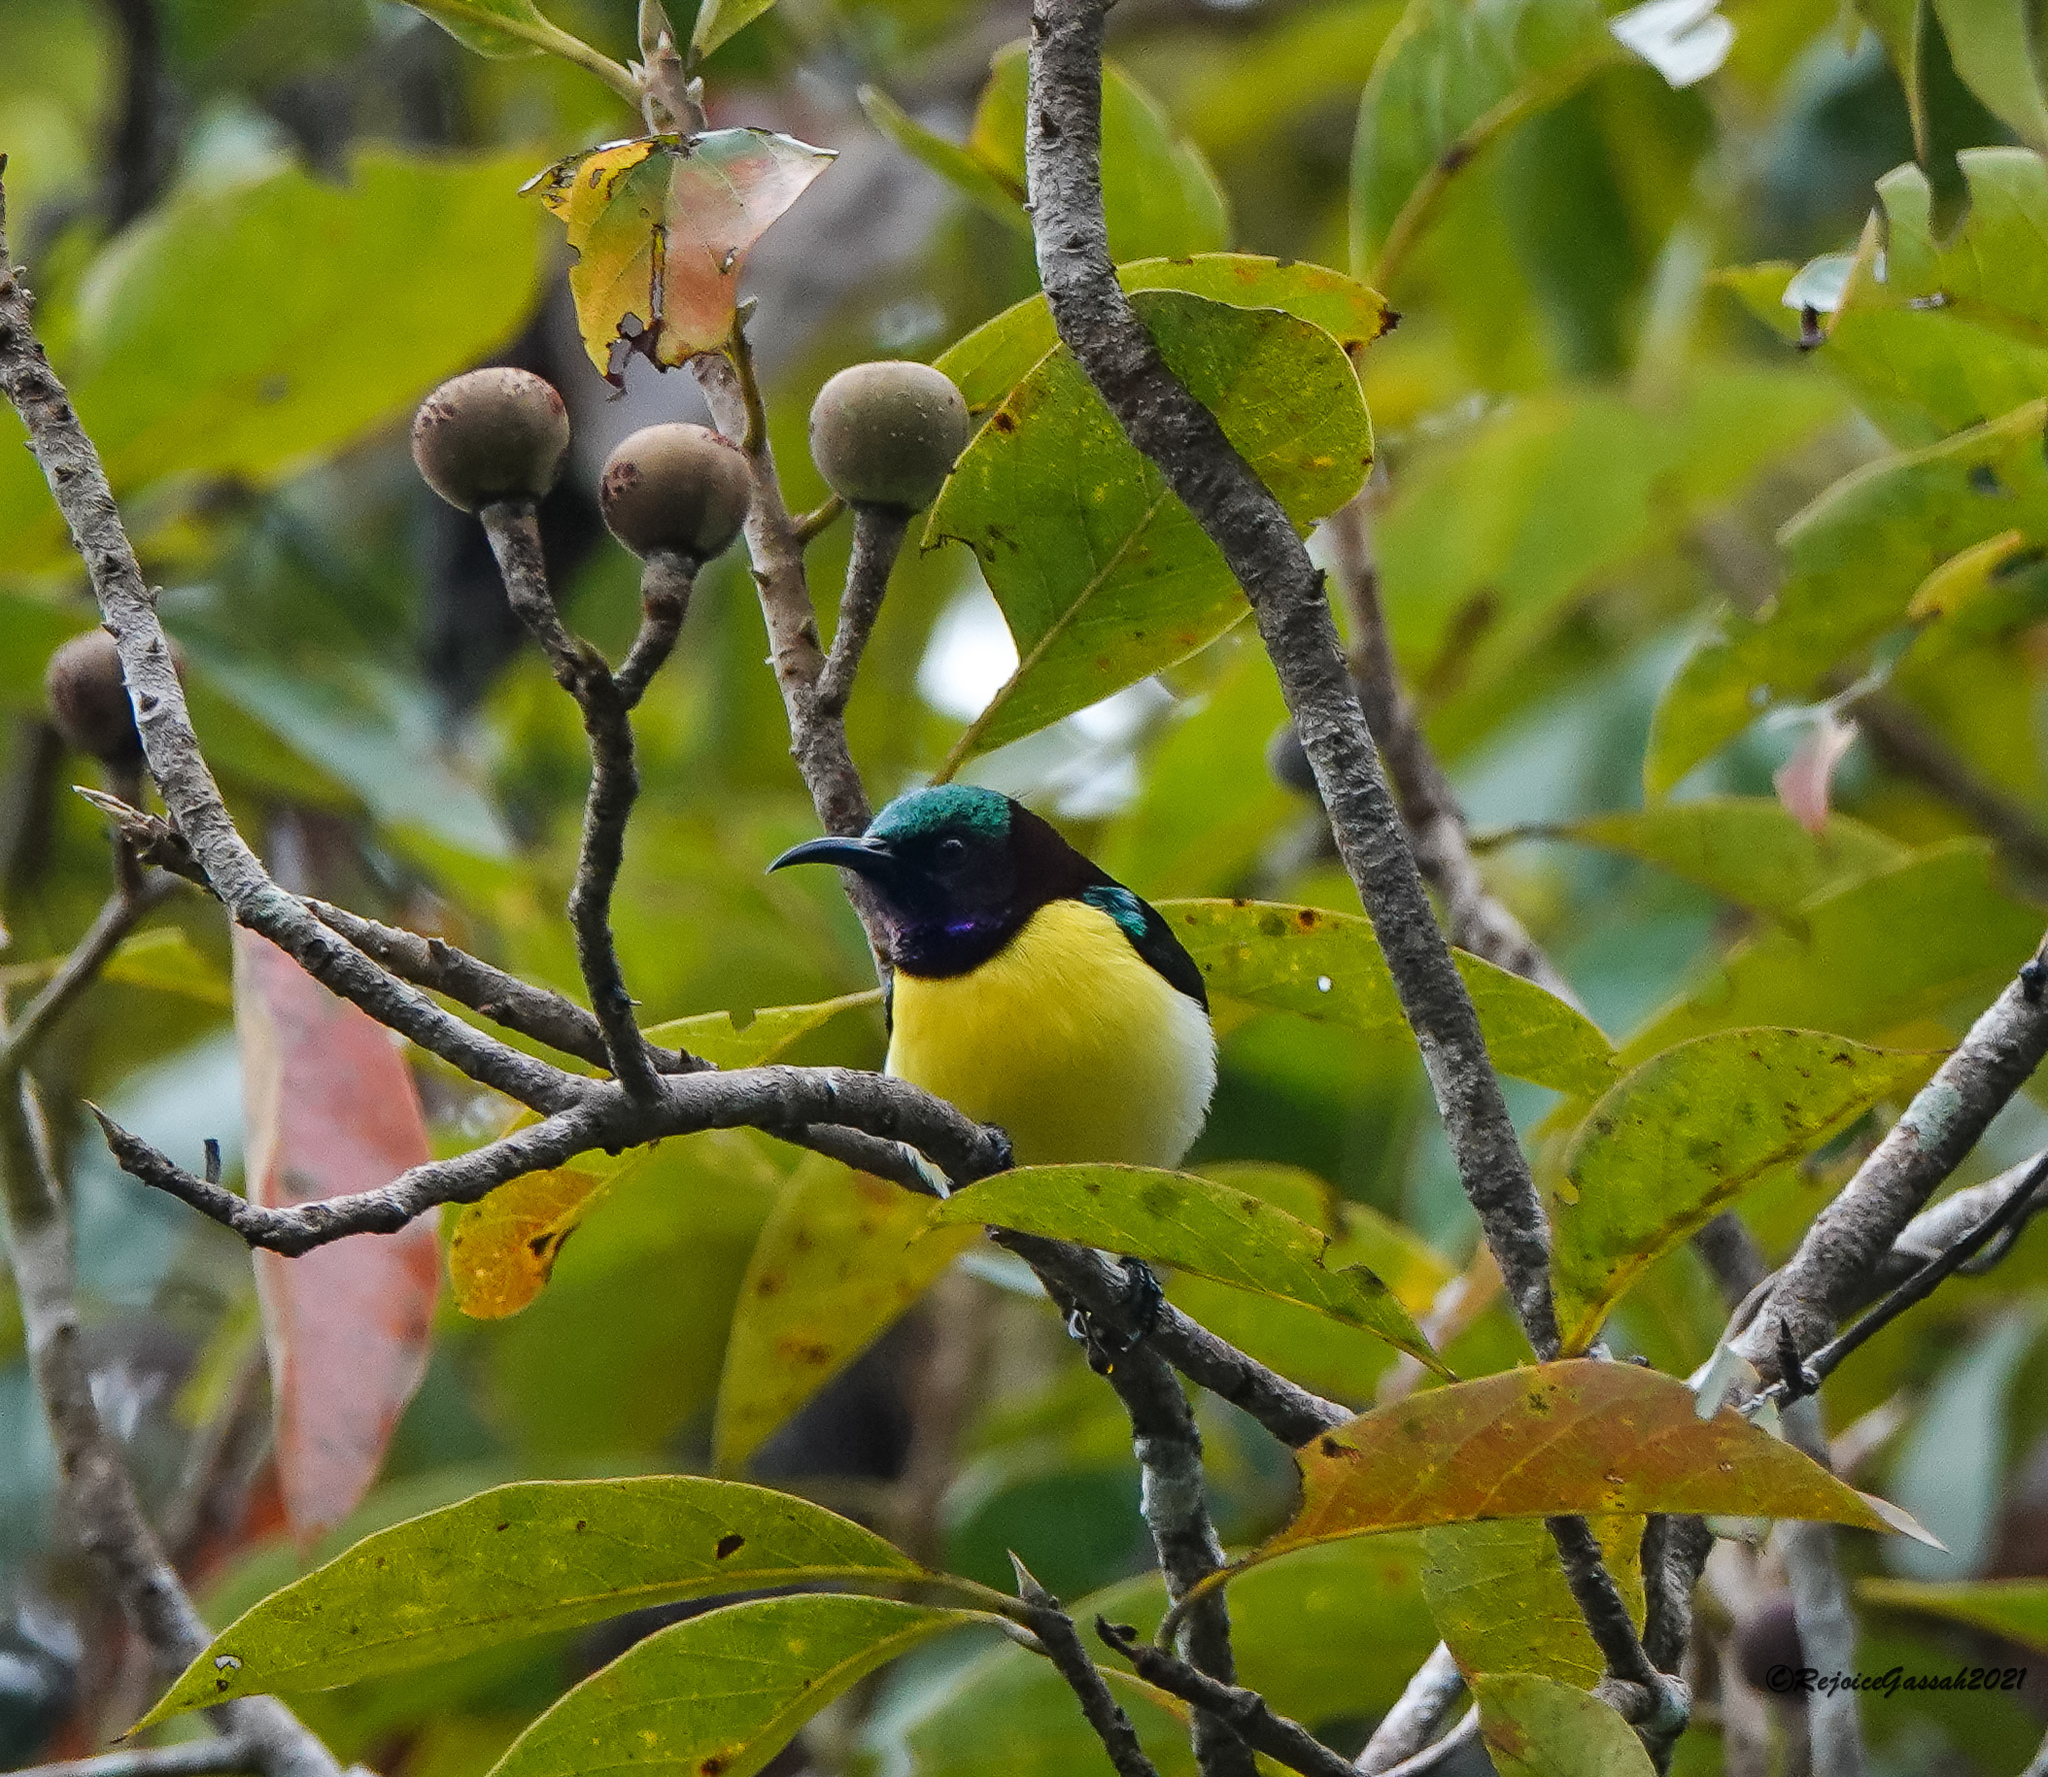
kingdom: Animalia
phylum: Chordata
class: Aves
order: Passeriformes
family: Nectariniidae
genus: Leptocoma
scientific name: Leptocoma zeylonica
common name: Purple-rumped sunbird
